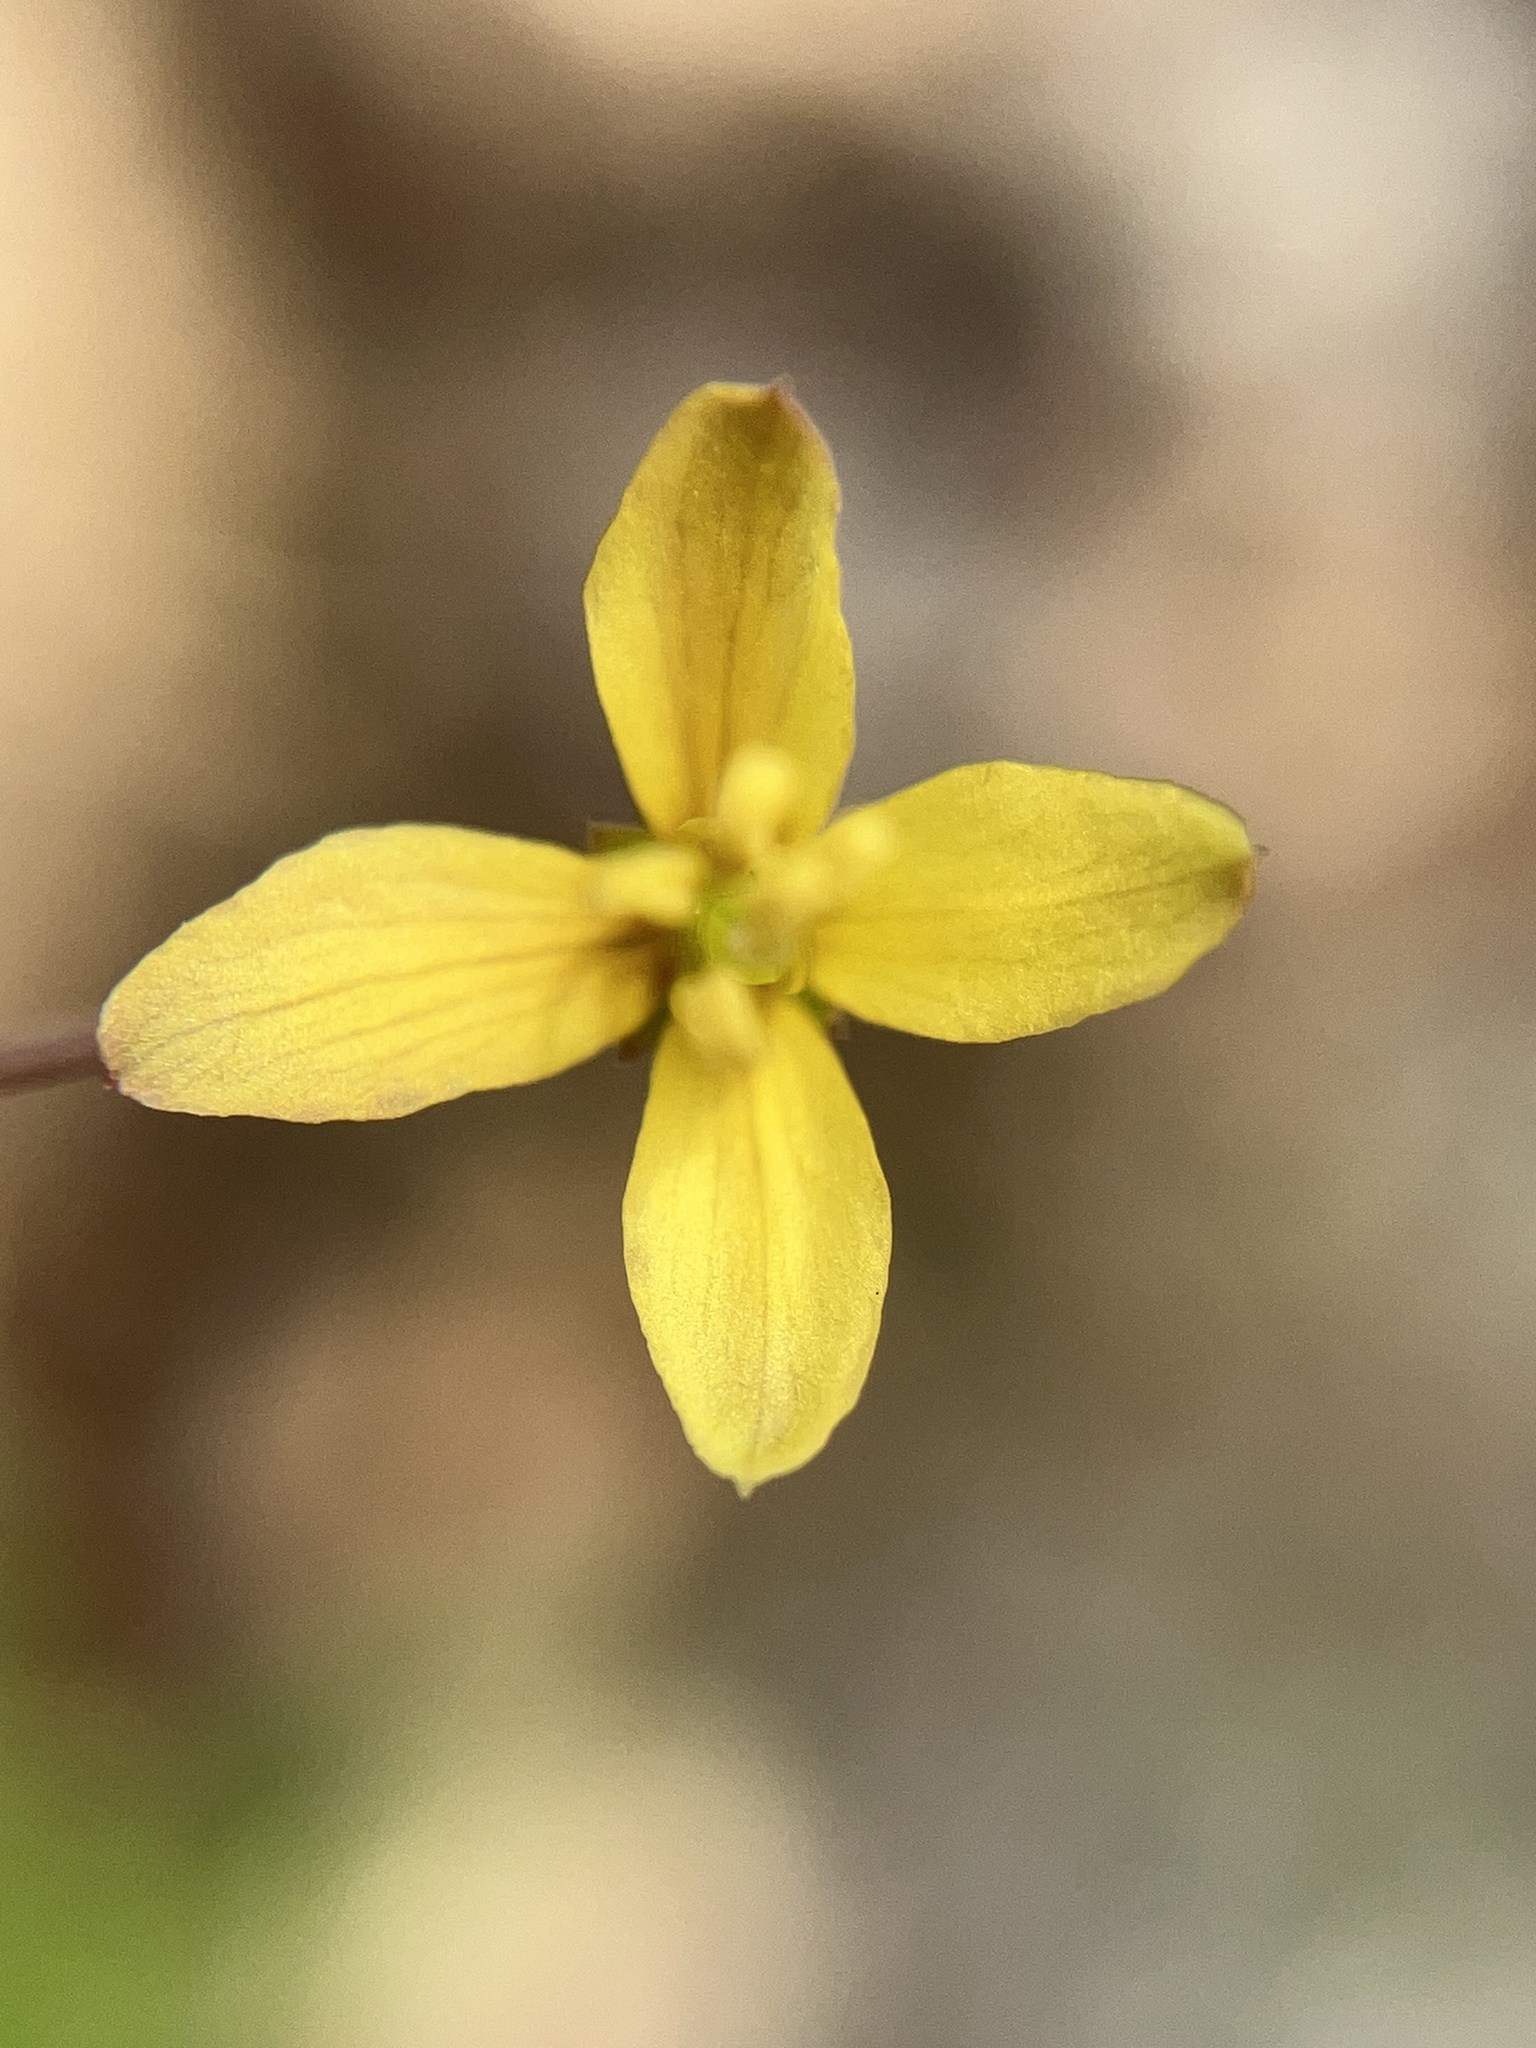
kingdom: Plantae
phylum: Tracheophyta
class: Magnoliopsida
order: Brassicales
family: Cleomaceae
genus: Corynandra
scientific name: Corynandra aspera
